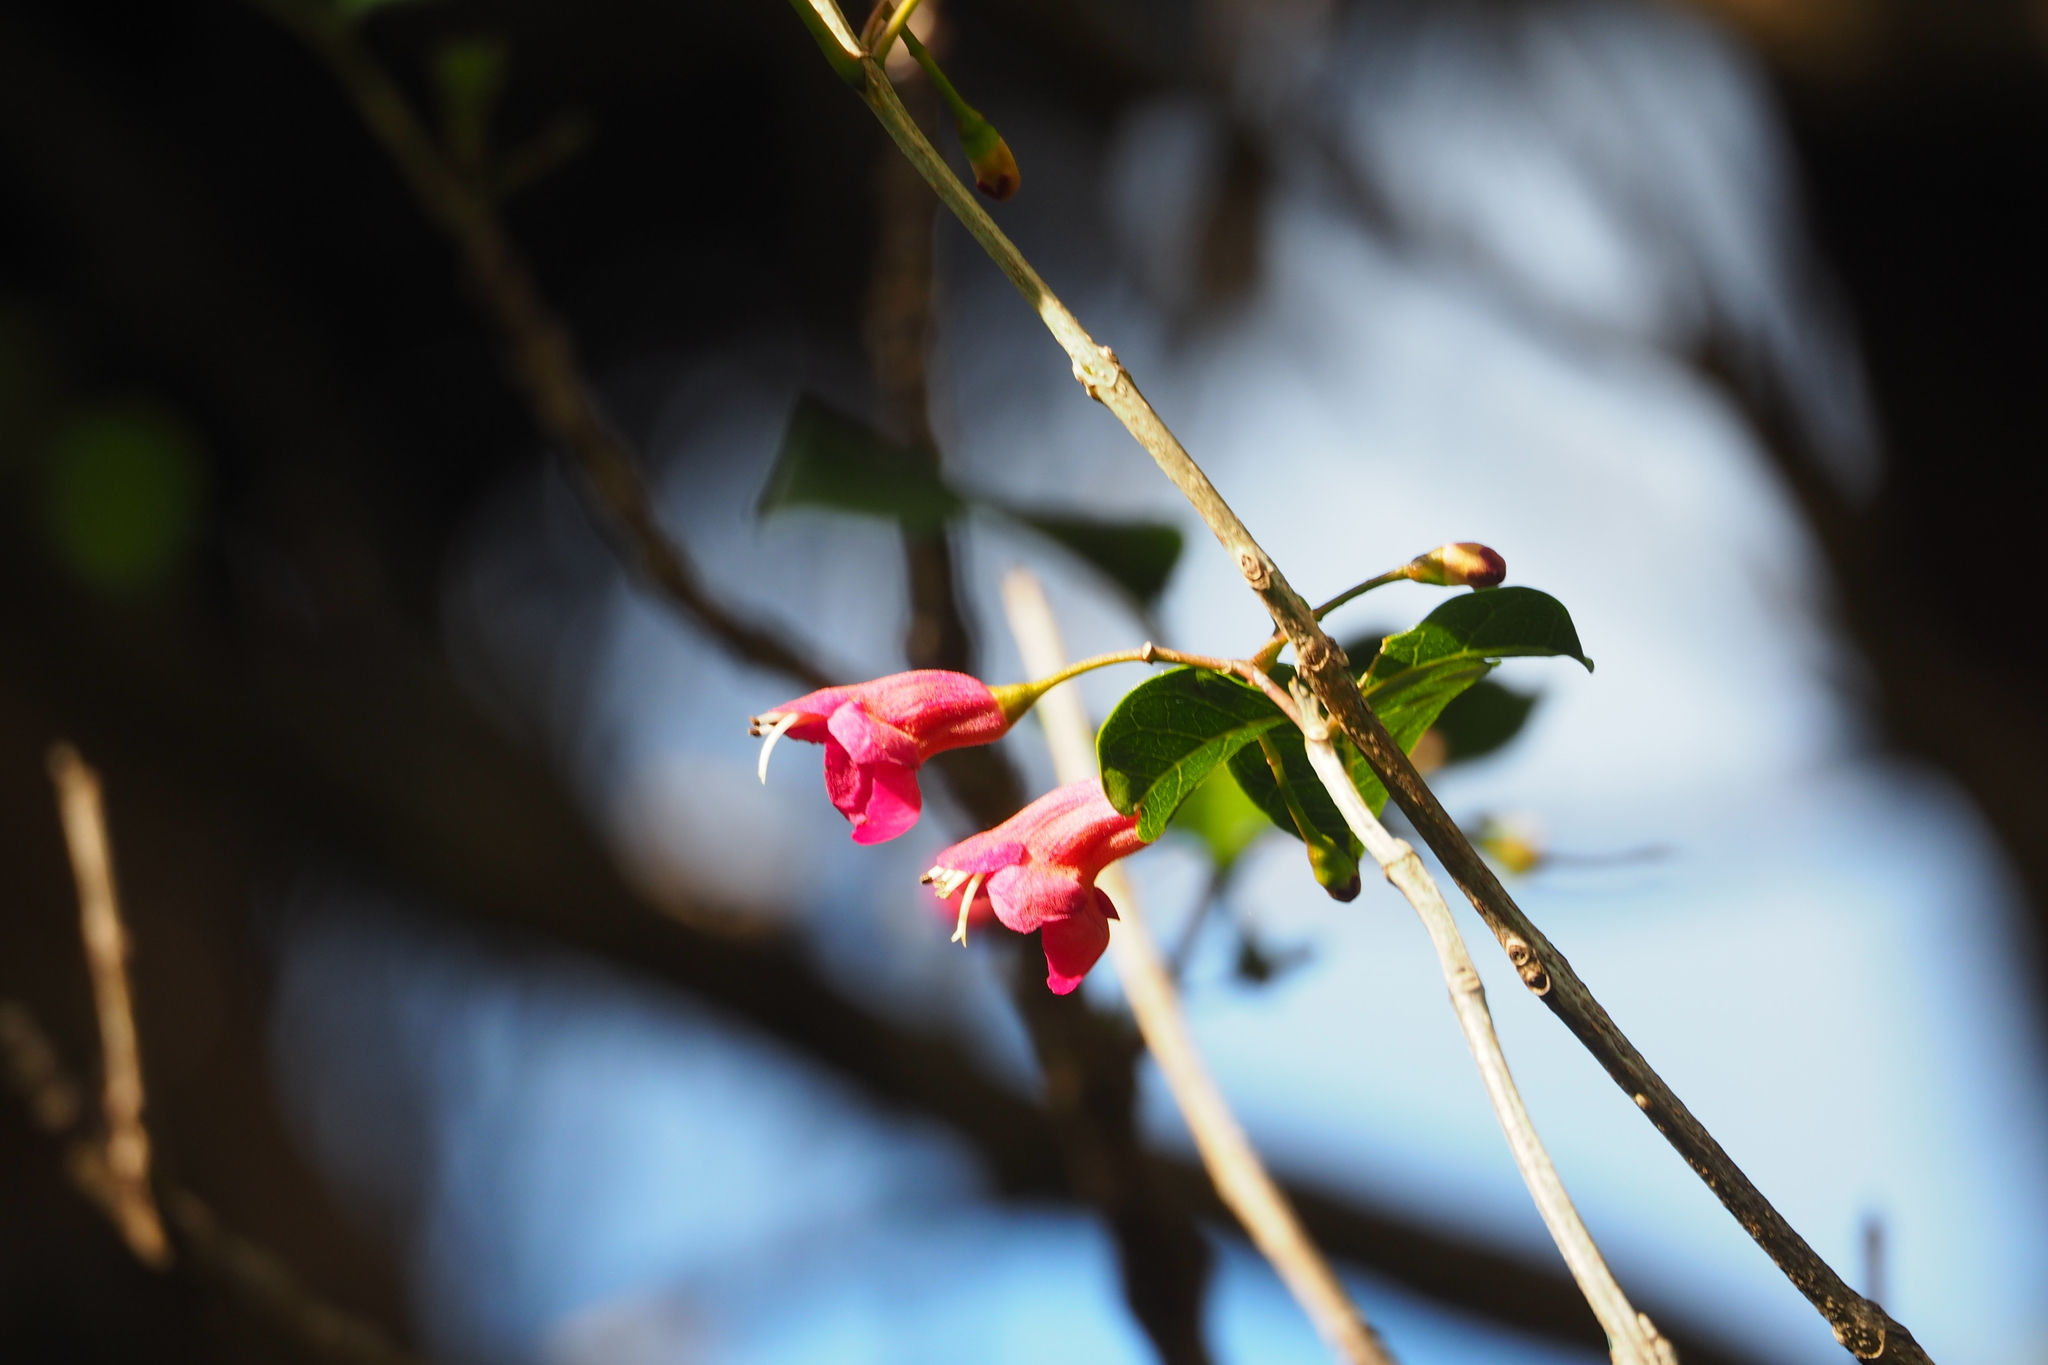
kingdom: Plantae
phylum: Tracheophyta
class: Magnoliopsida
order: Lamiales
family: Lamiaceae
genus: Vitex
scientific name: Vitex lucens
